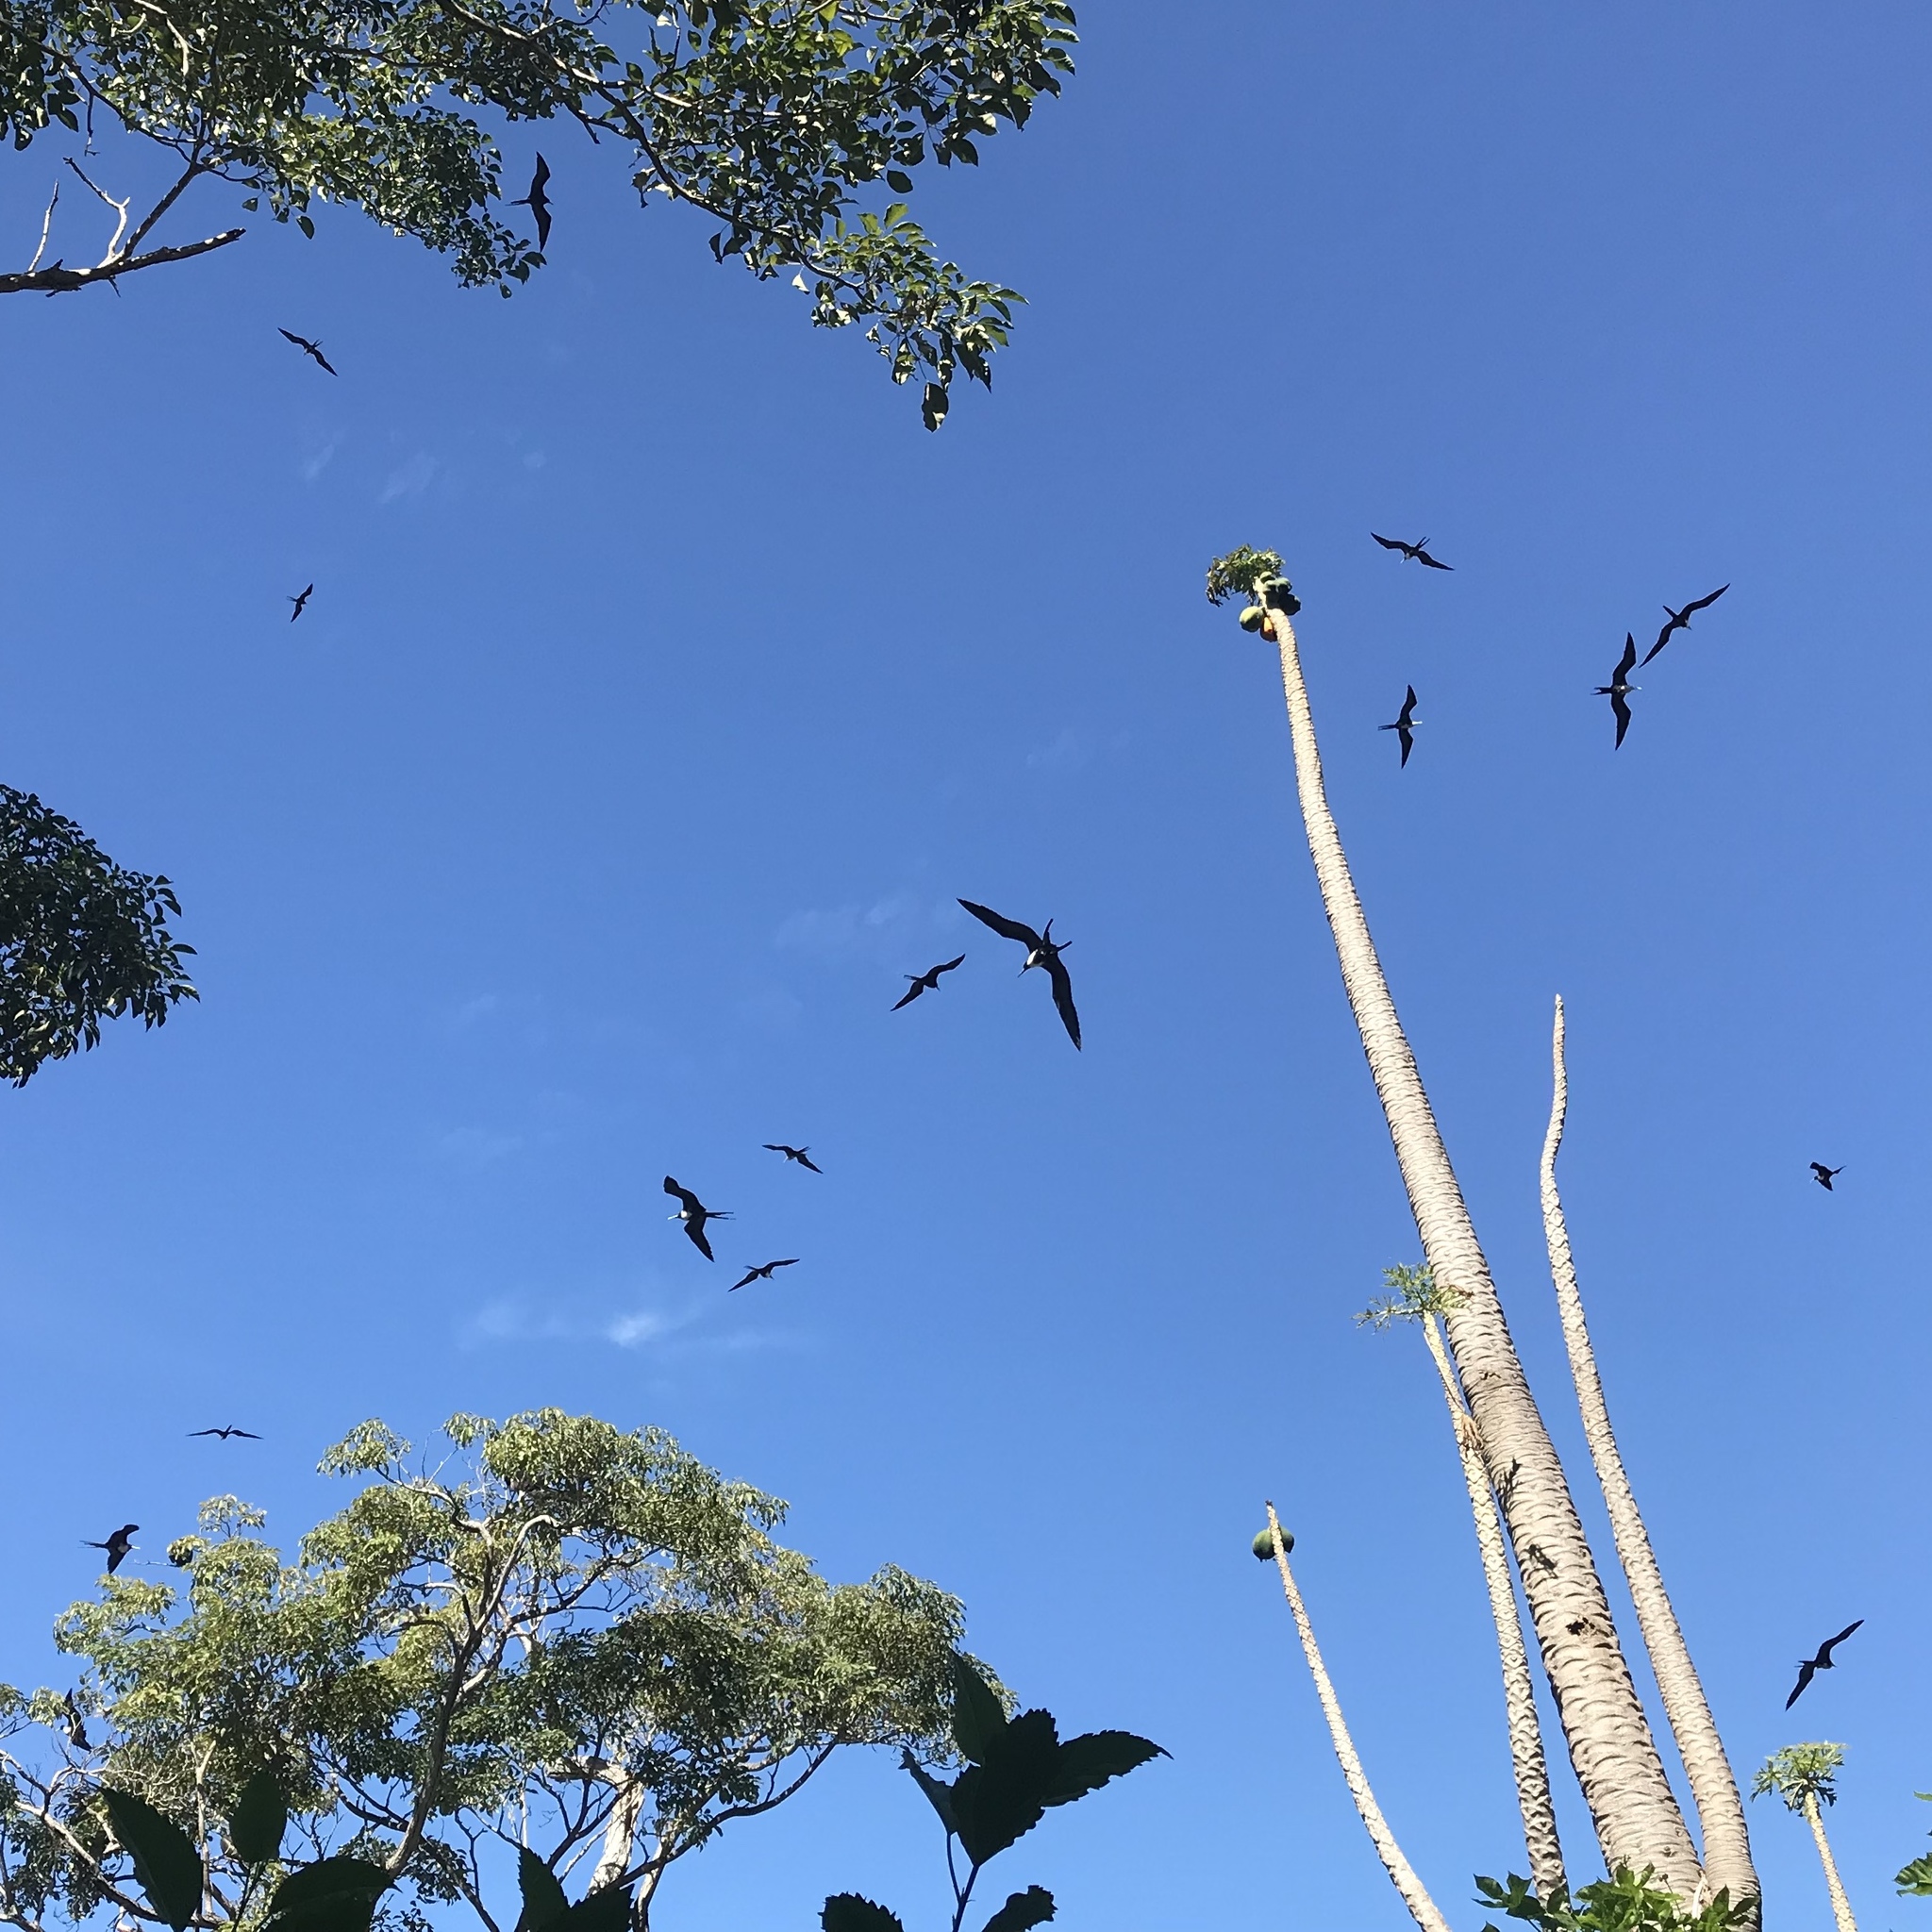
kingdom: Animalia
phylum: Chordata
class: Aves
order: Suliformes
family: Fregatidae
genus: Fregata
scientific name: Fregata magnificens
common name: Magnificent frigatebird
